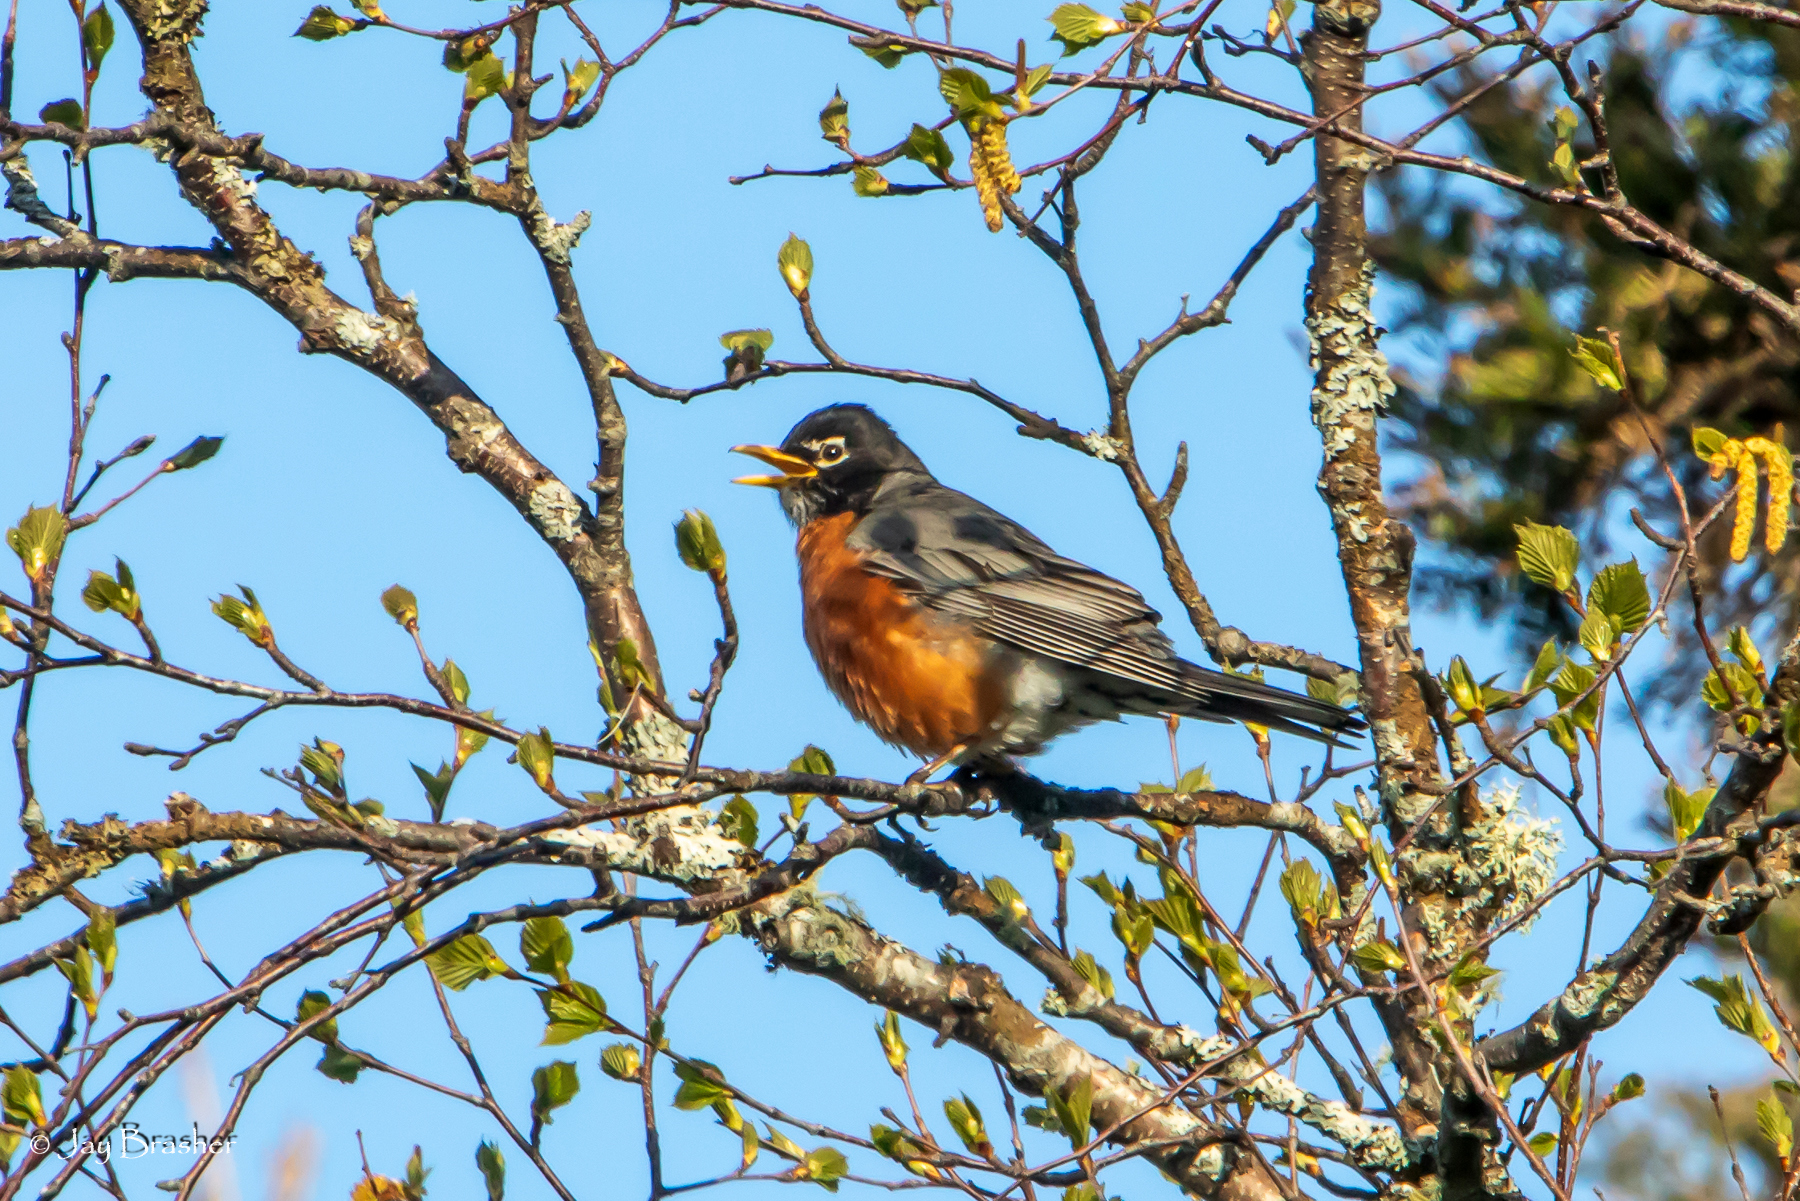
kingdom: Animalia
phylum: Chordata
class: Aves
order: Passeriformes
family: Turdidae
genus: Turdus
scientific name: Turdus migratorius
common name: American robin
